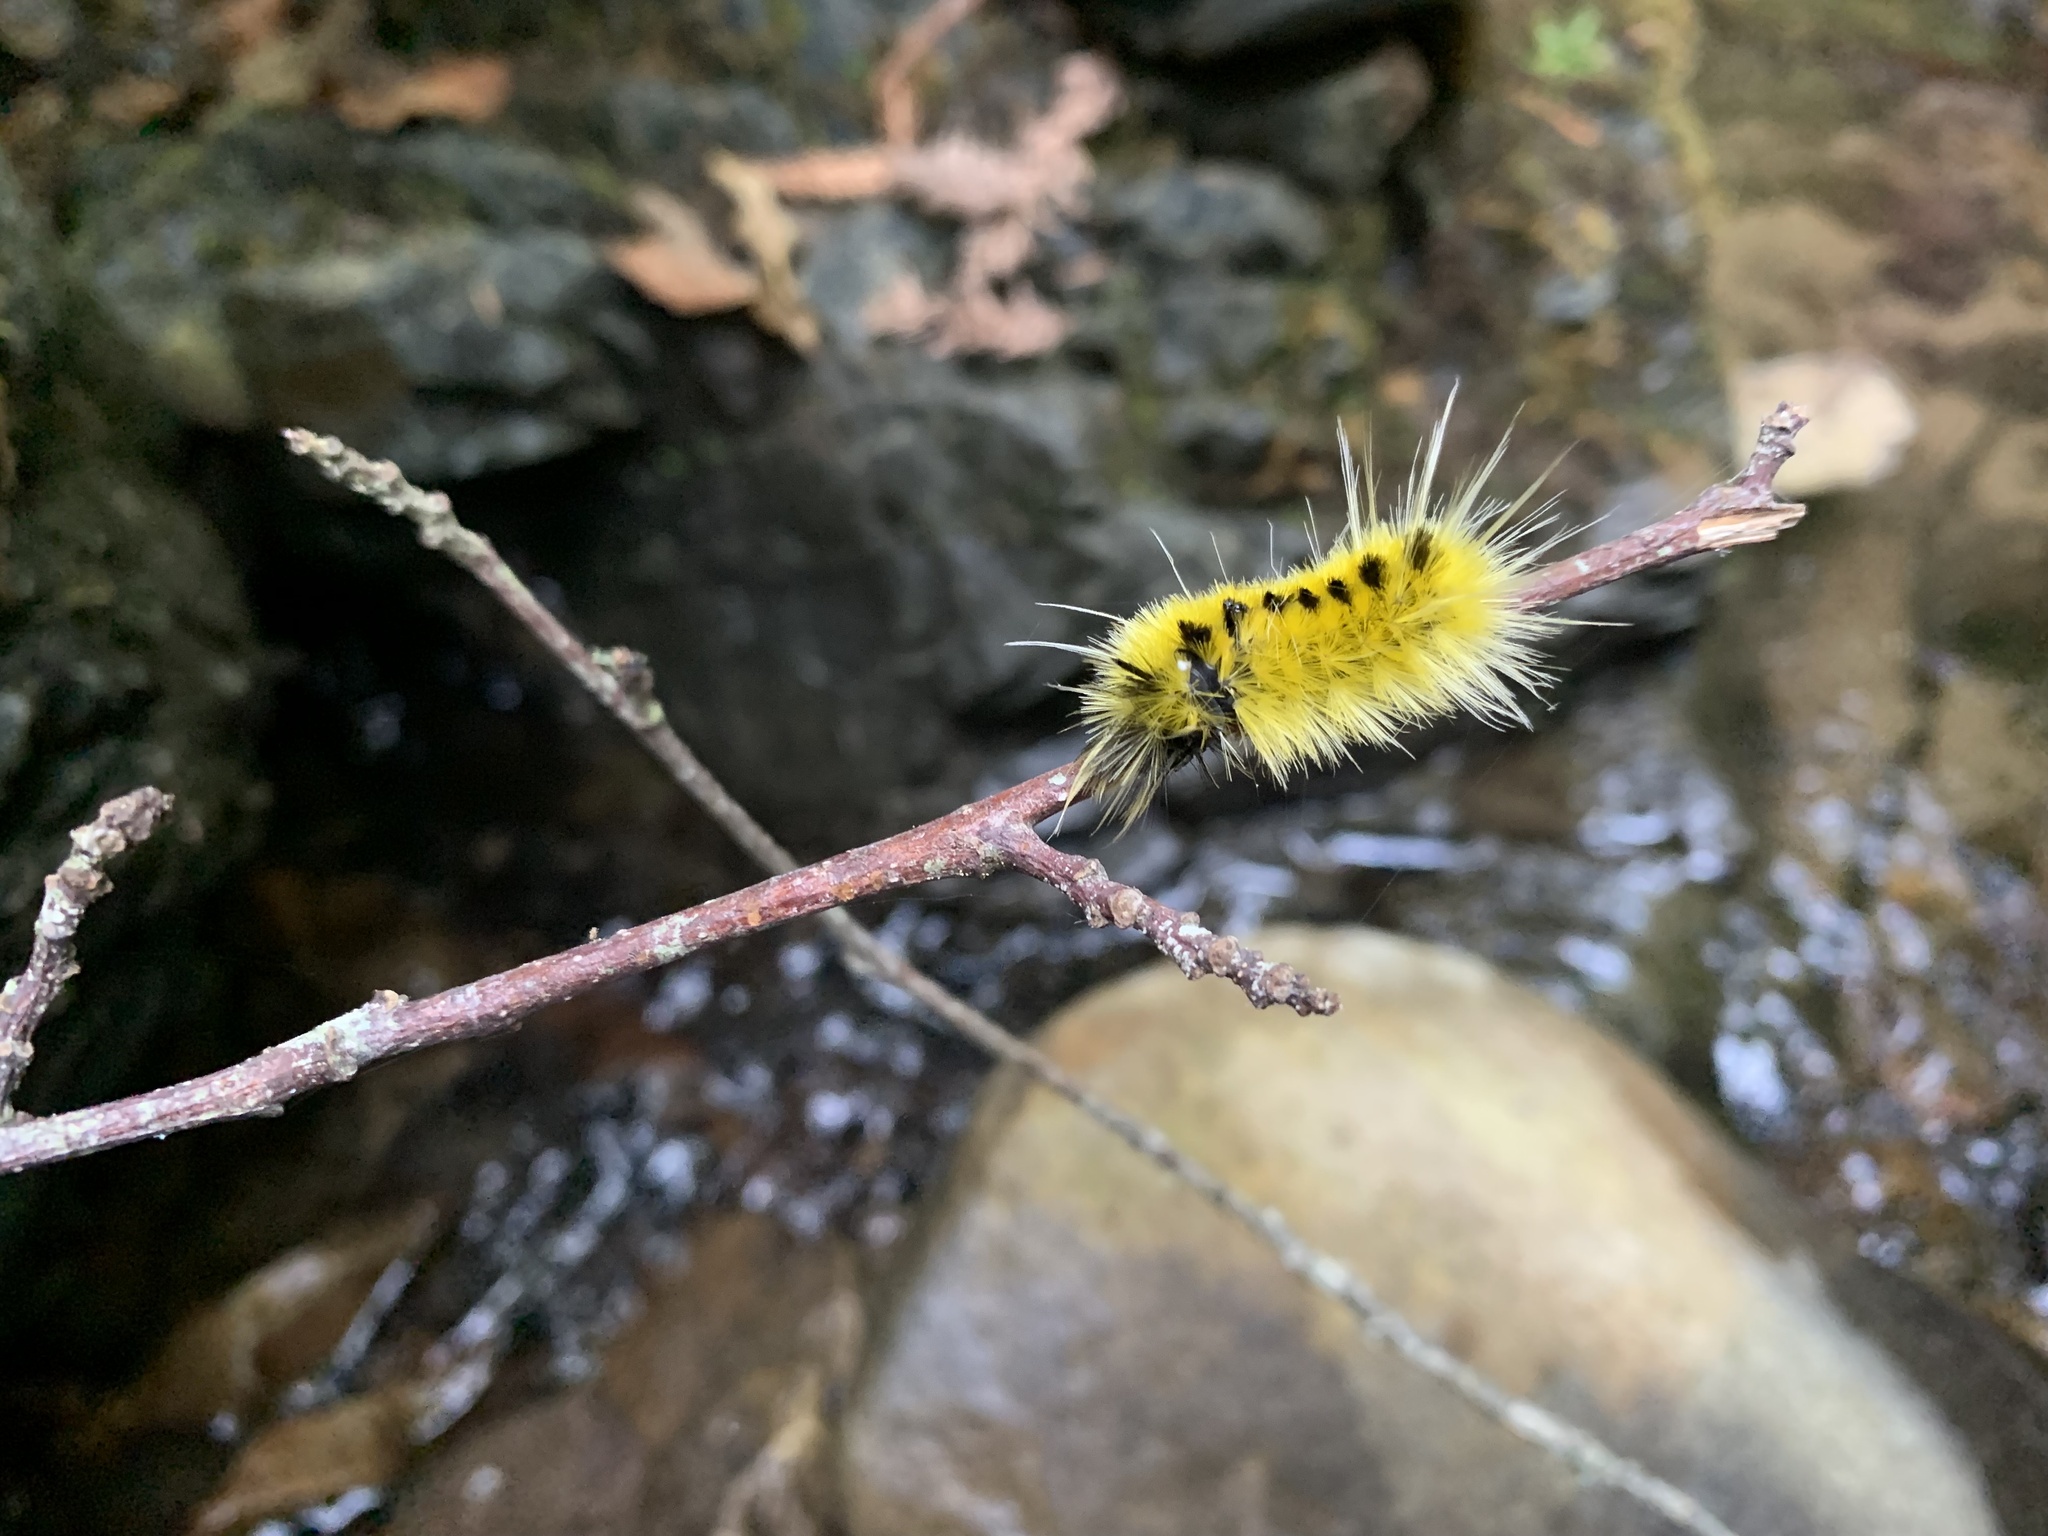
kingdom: Animalia
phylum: Arthropoda
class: Insecta
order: Lepidoptera
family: Erebidae
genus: Lophocampa
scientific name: Lophocampa maculata
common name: Spotted tussock moth
